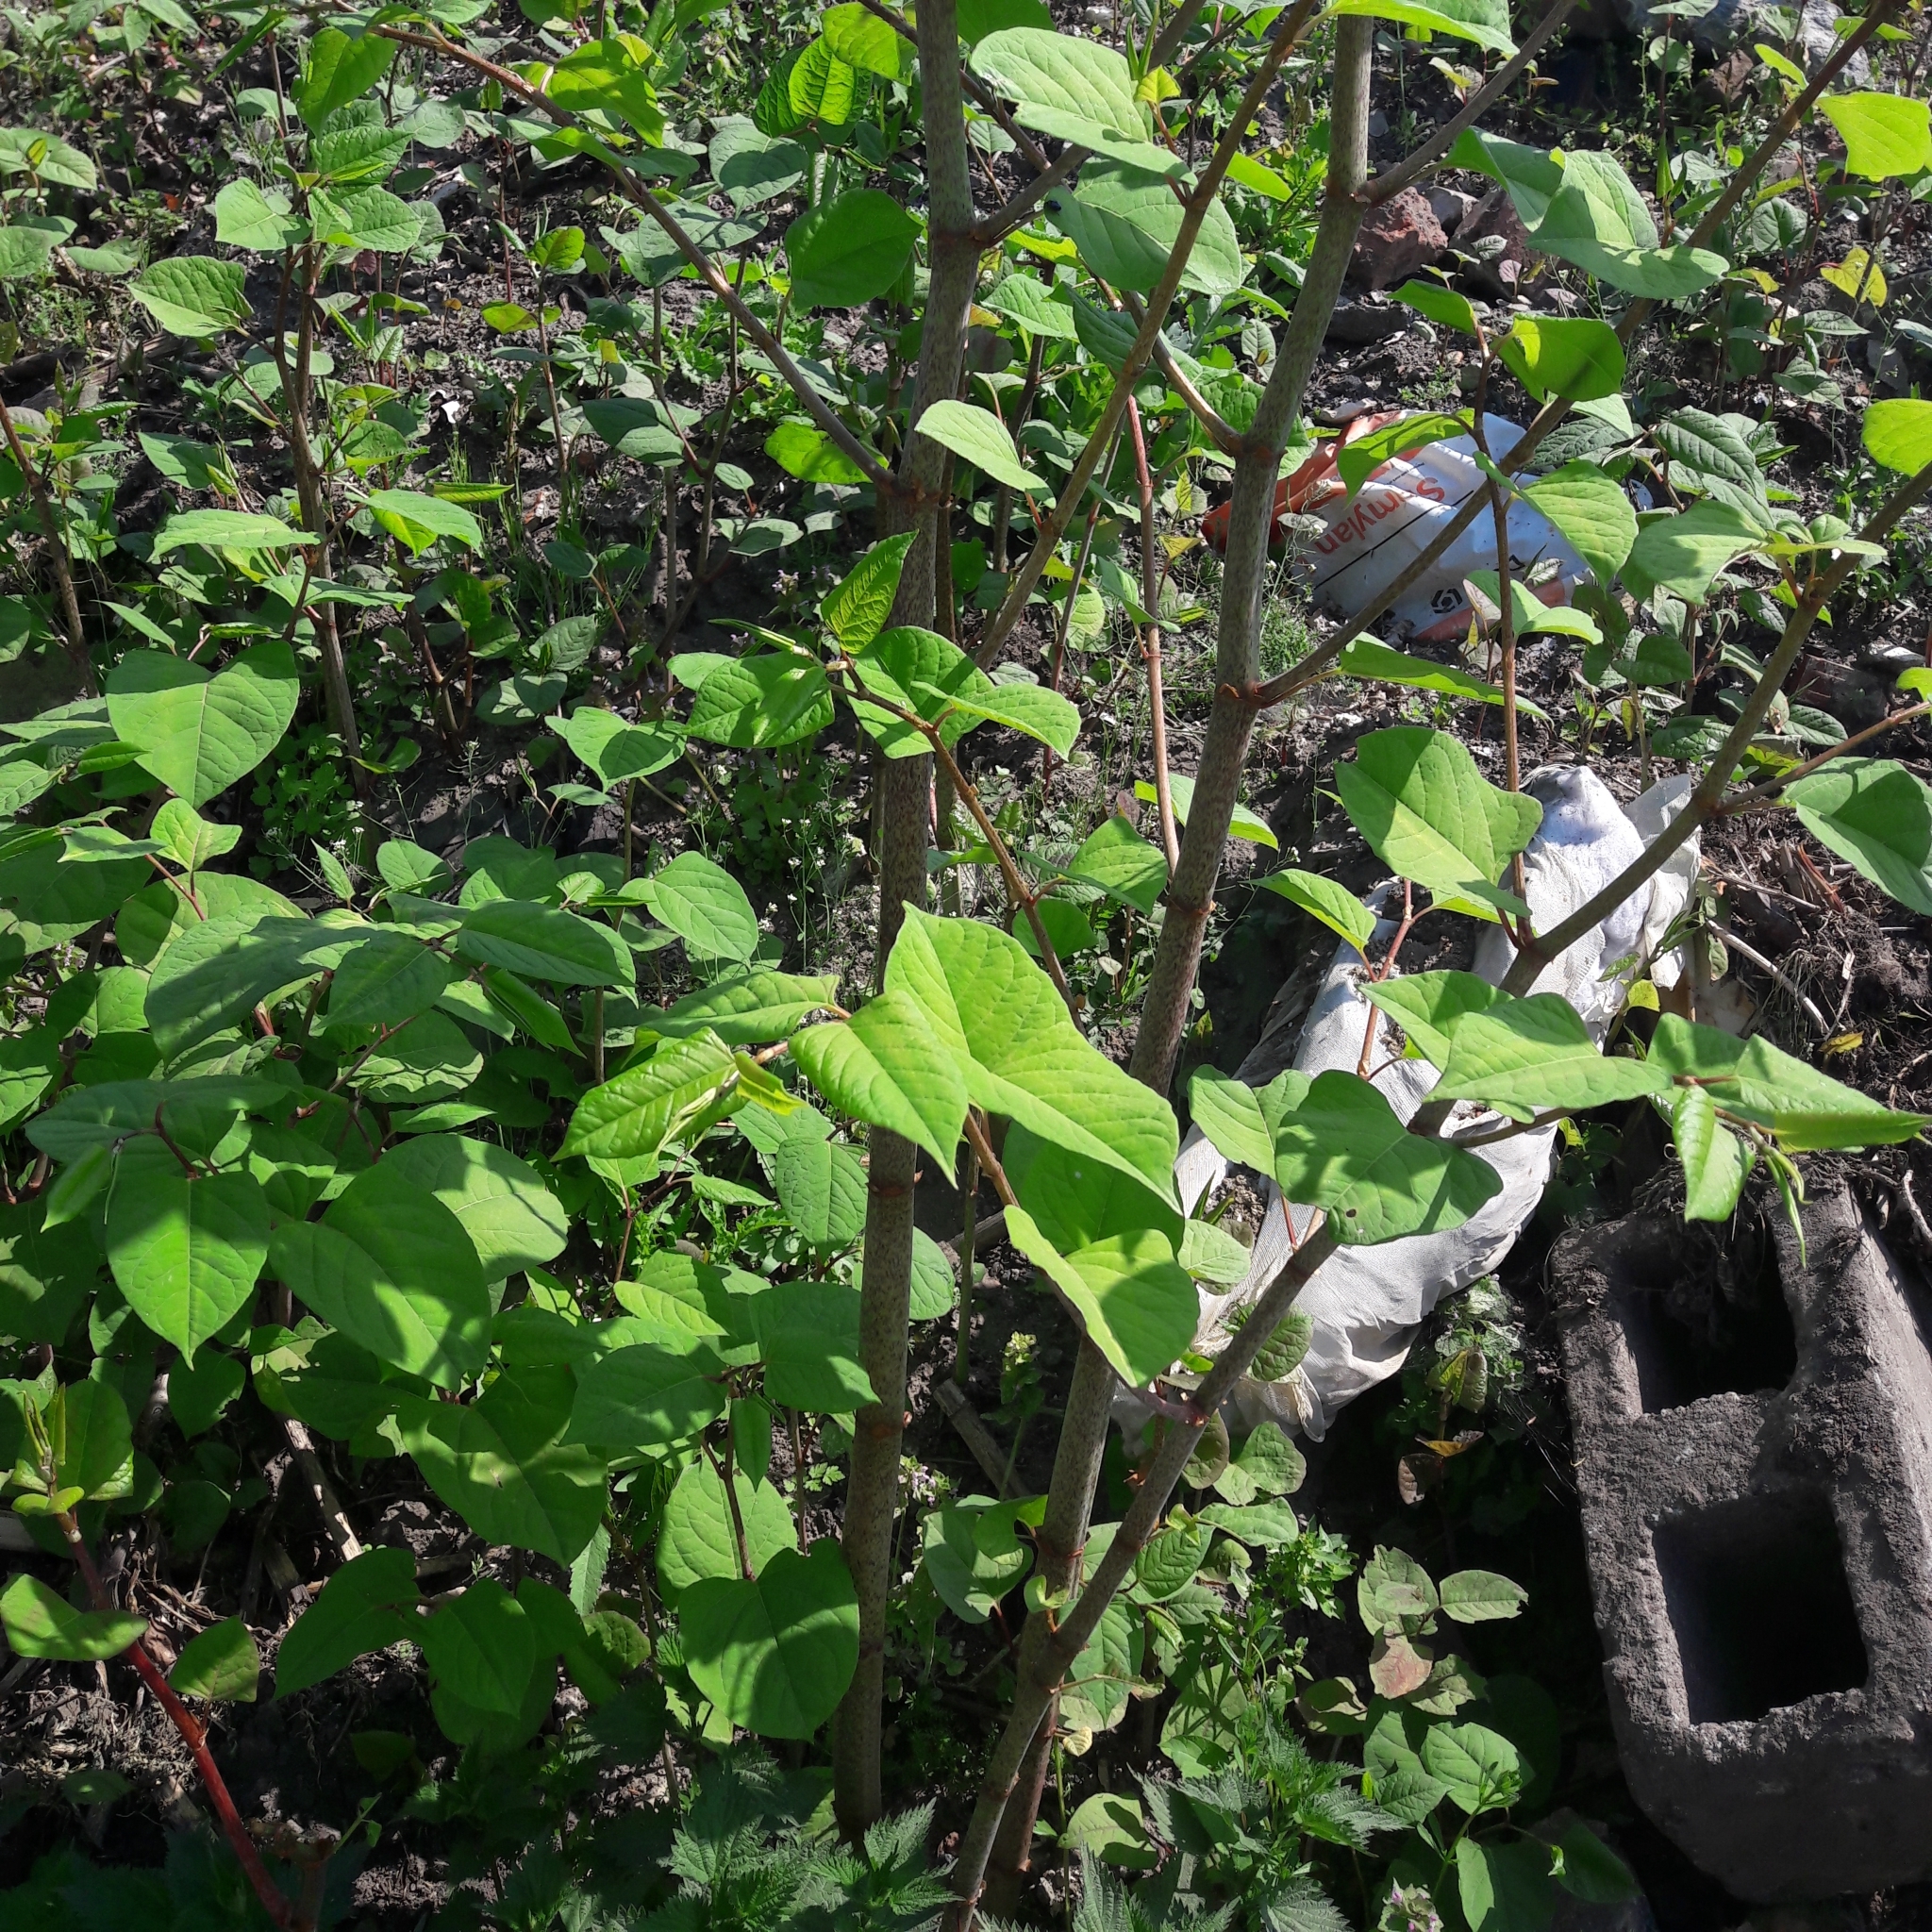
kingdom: Plantae
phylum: Tracheophyta
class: Magnoliopsida
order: Caryophyllales
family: Polygonaceae
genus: Reynoutria
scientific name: Reynoutria japonica
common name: Japanese knotweed
